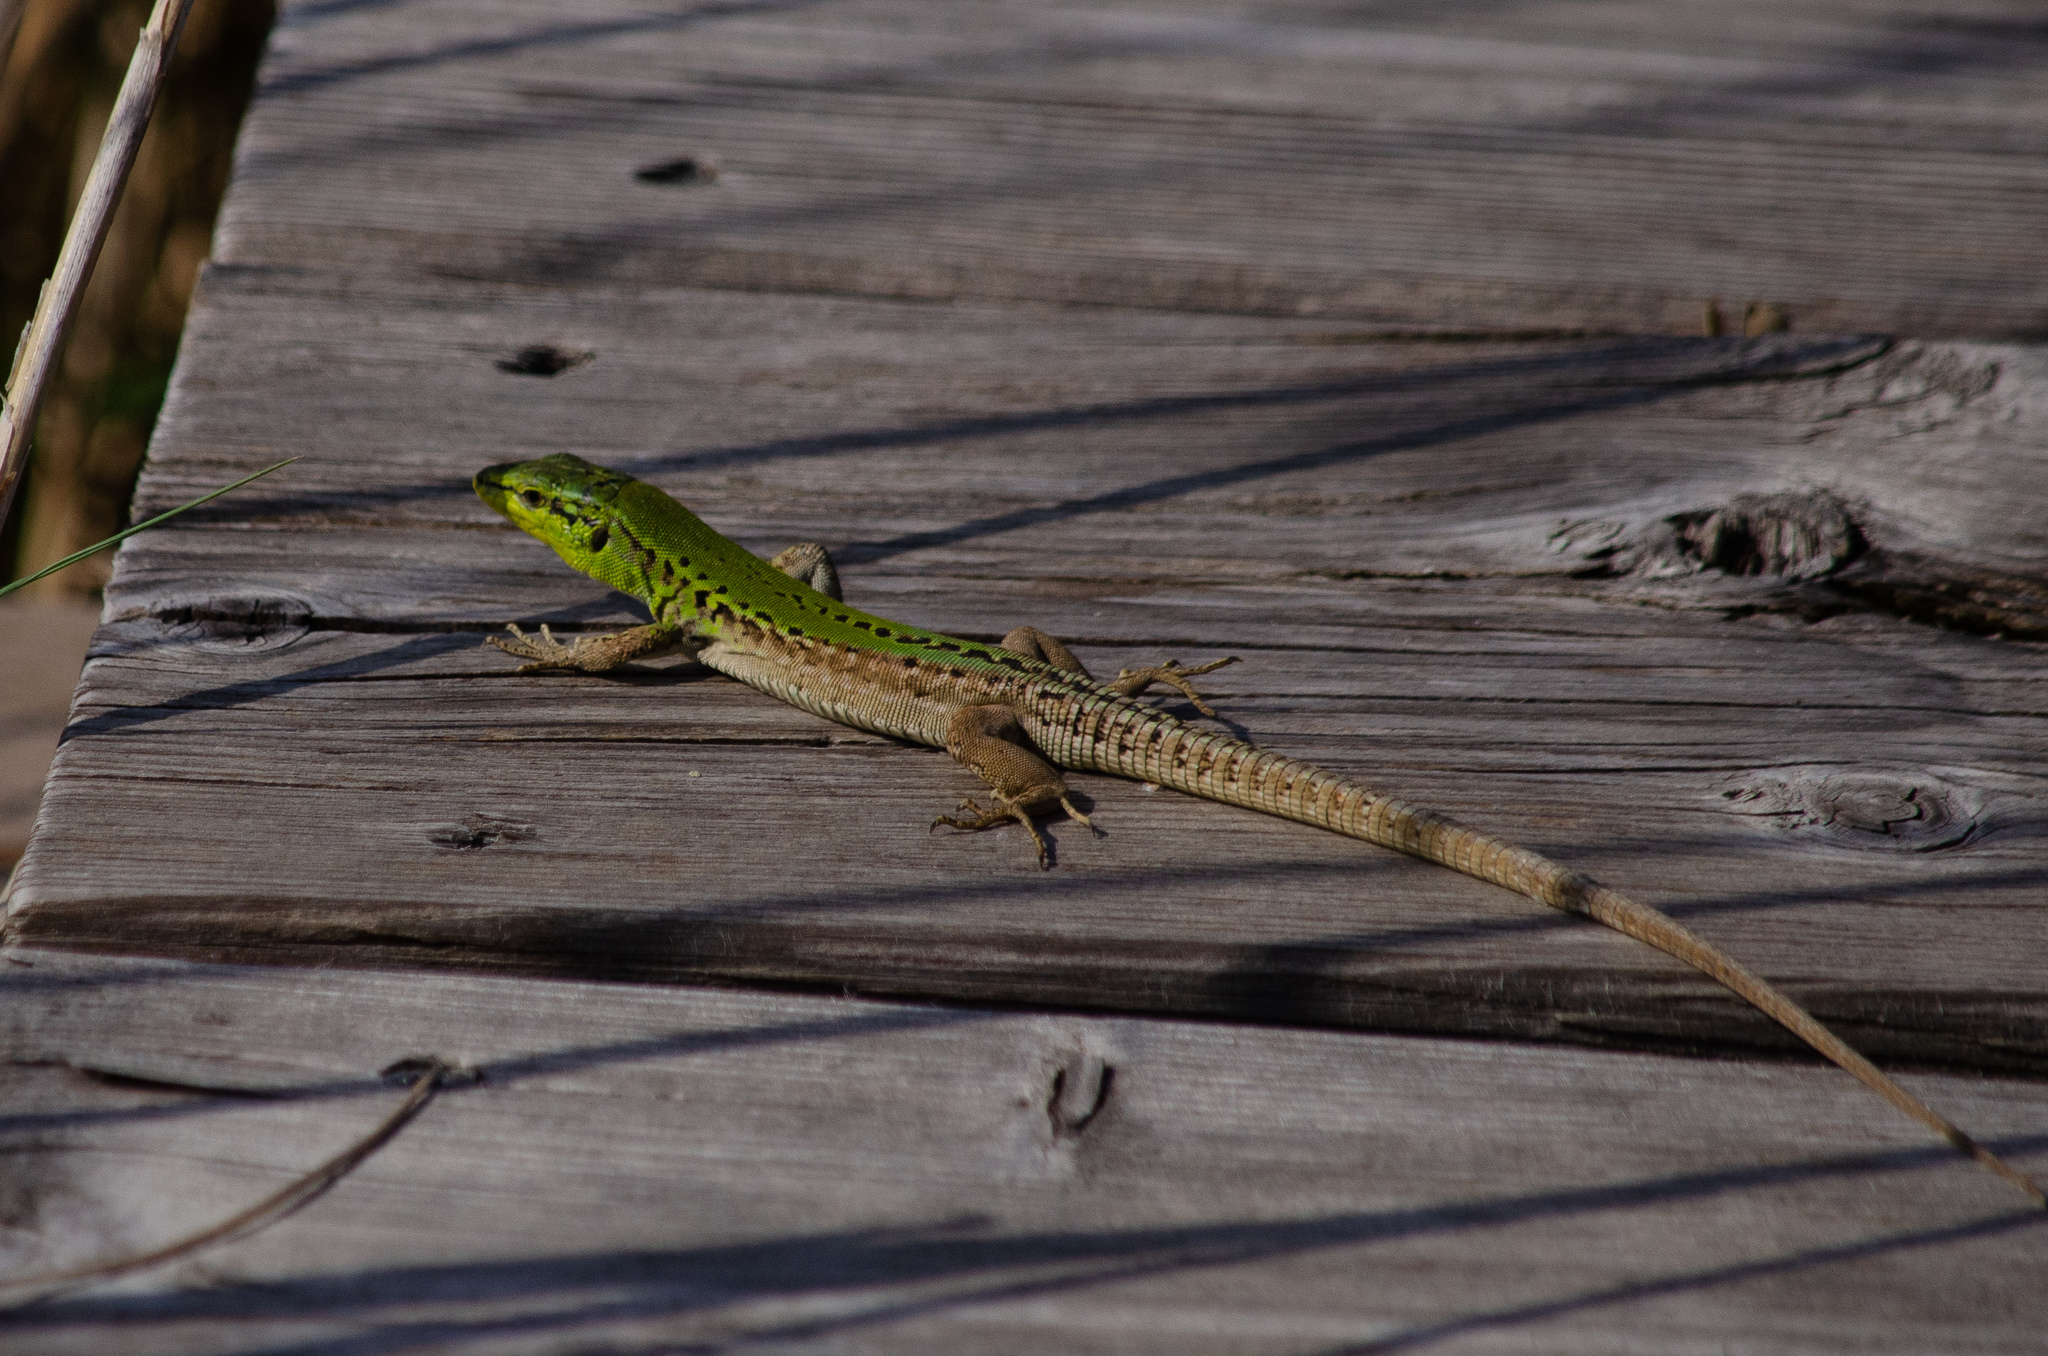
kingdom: Animalia
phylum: Chordata
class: Squamata
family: Lacertidae
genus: Podarcis
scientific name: Podarcis siculus
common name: Italian wall lizard
